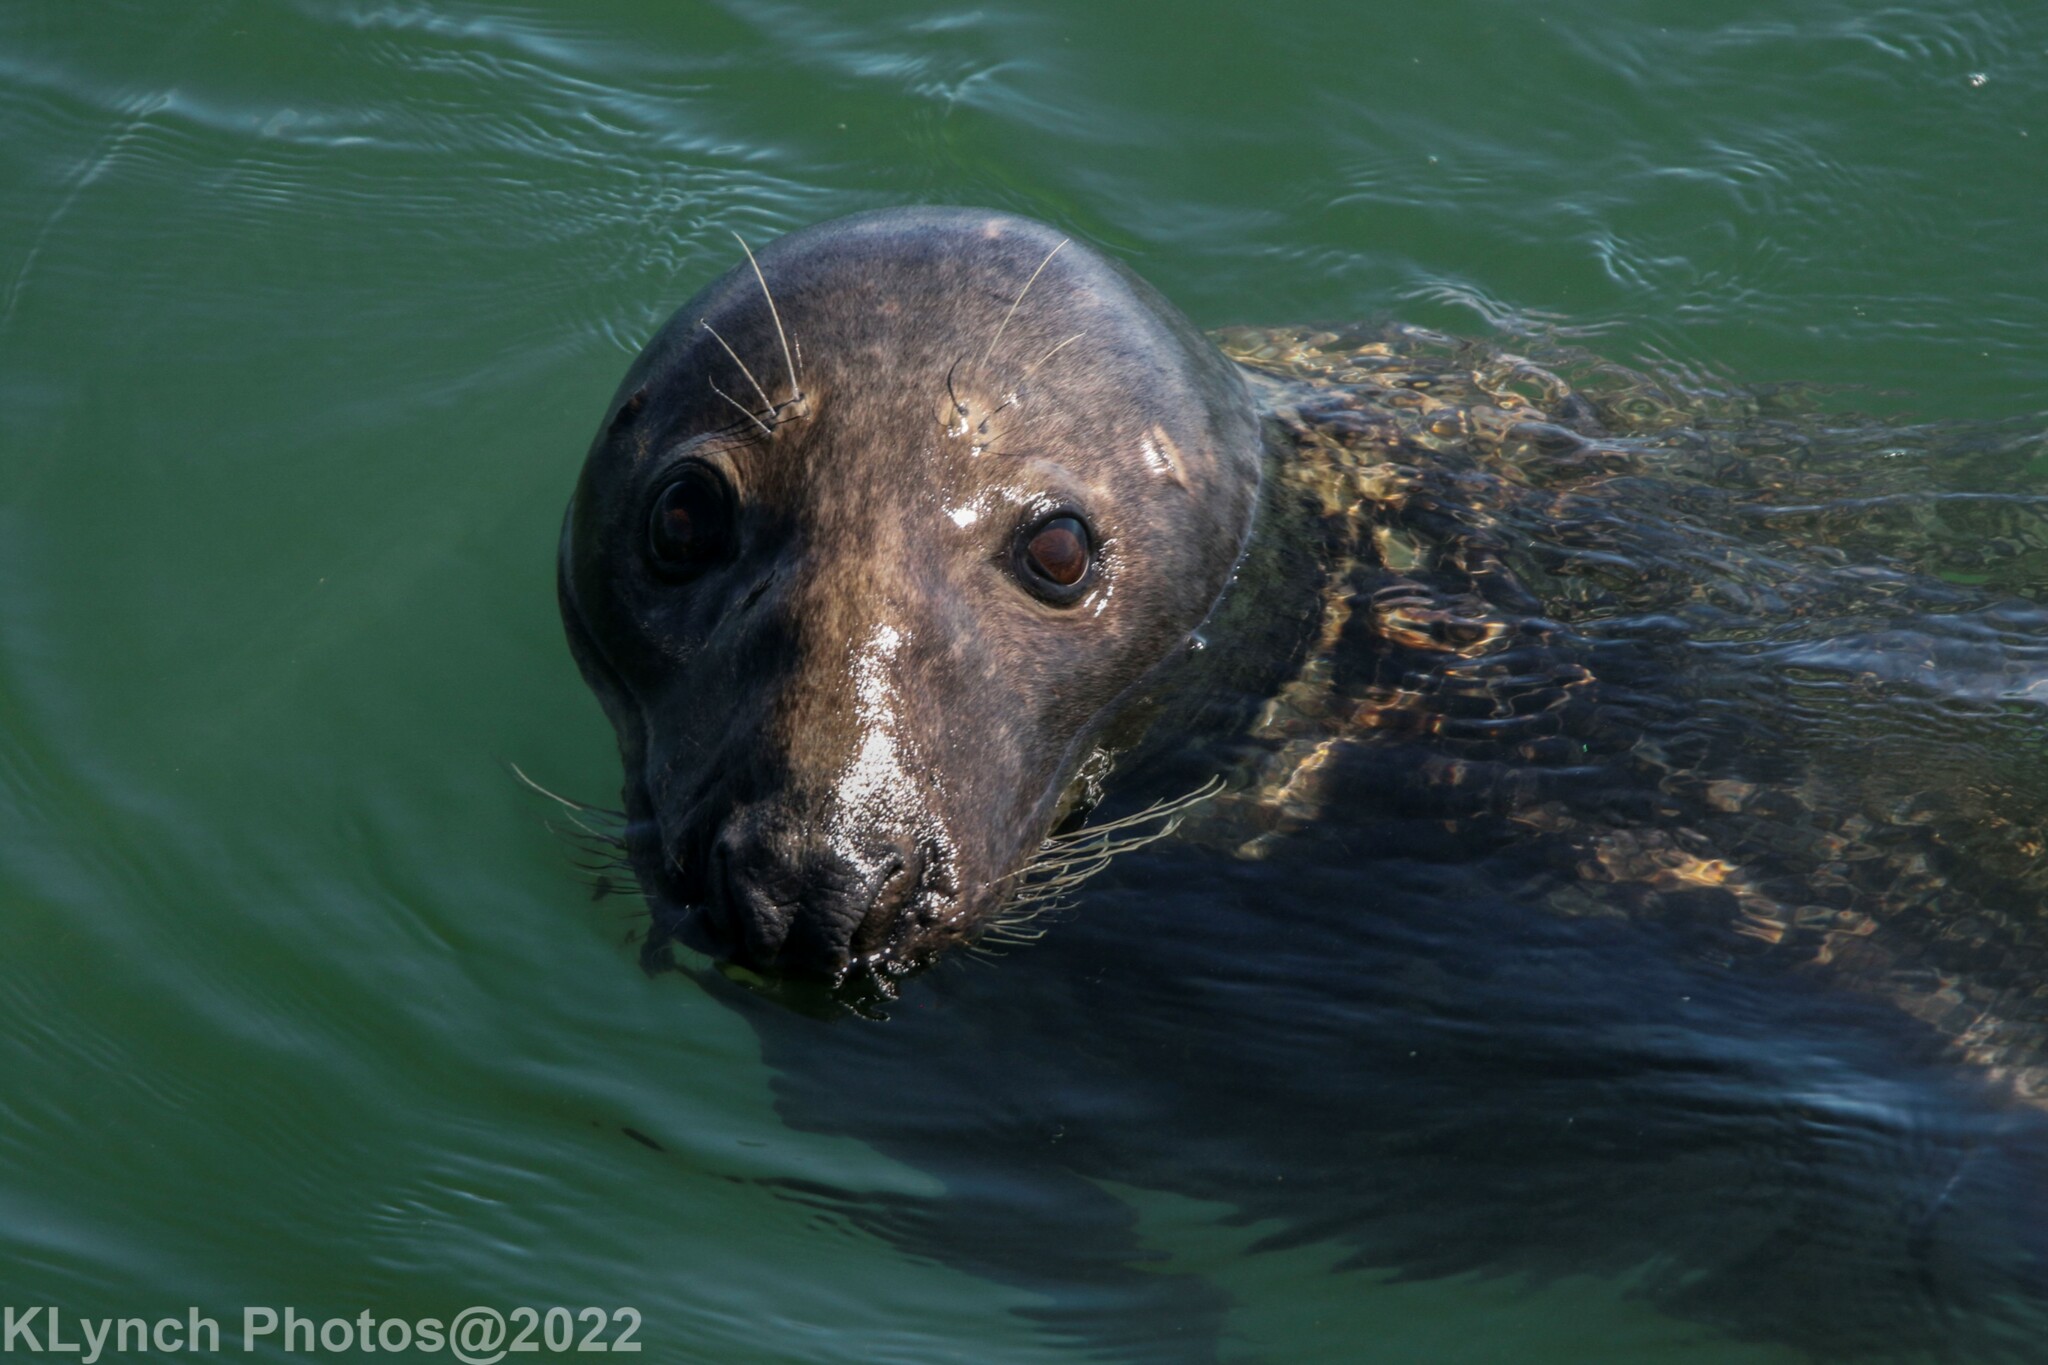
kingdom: Animalia
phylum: Chordata
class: Mammalia
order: Carnivora
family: Phocidae
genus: Halichoerus
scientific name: Halichoerus grypus
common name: Grey seal
